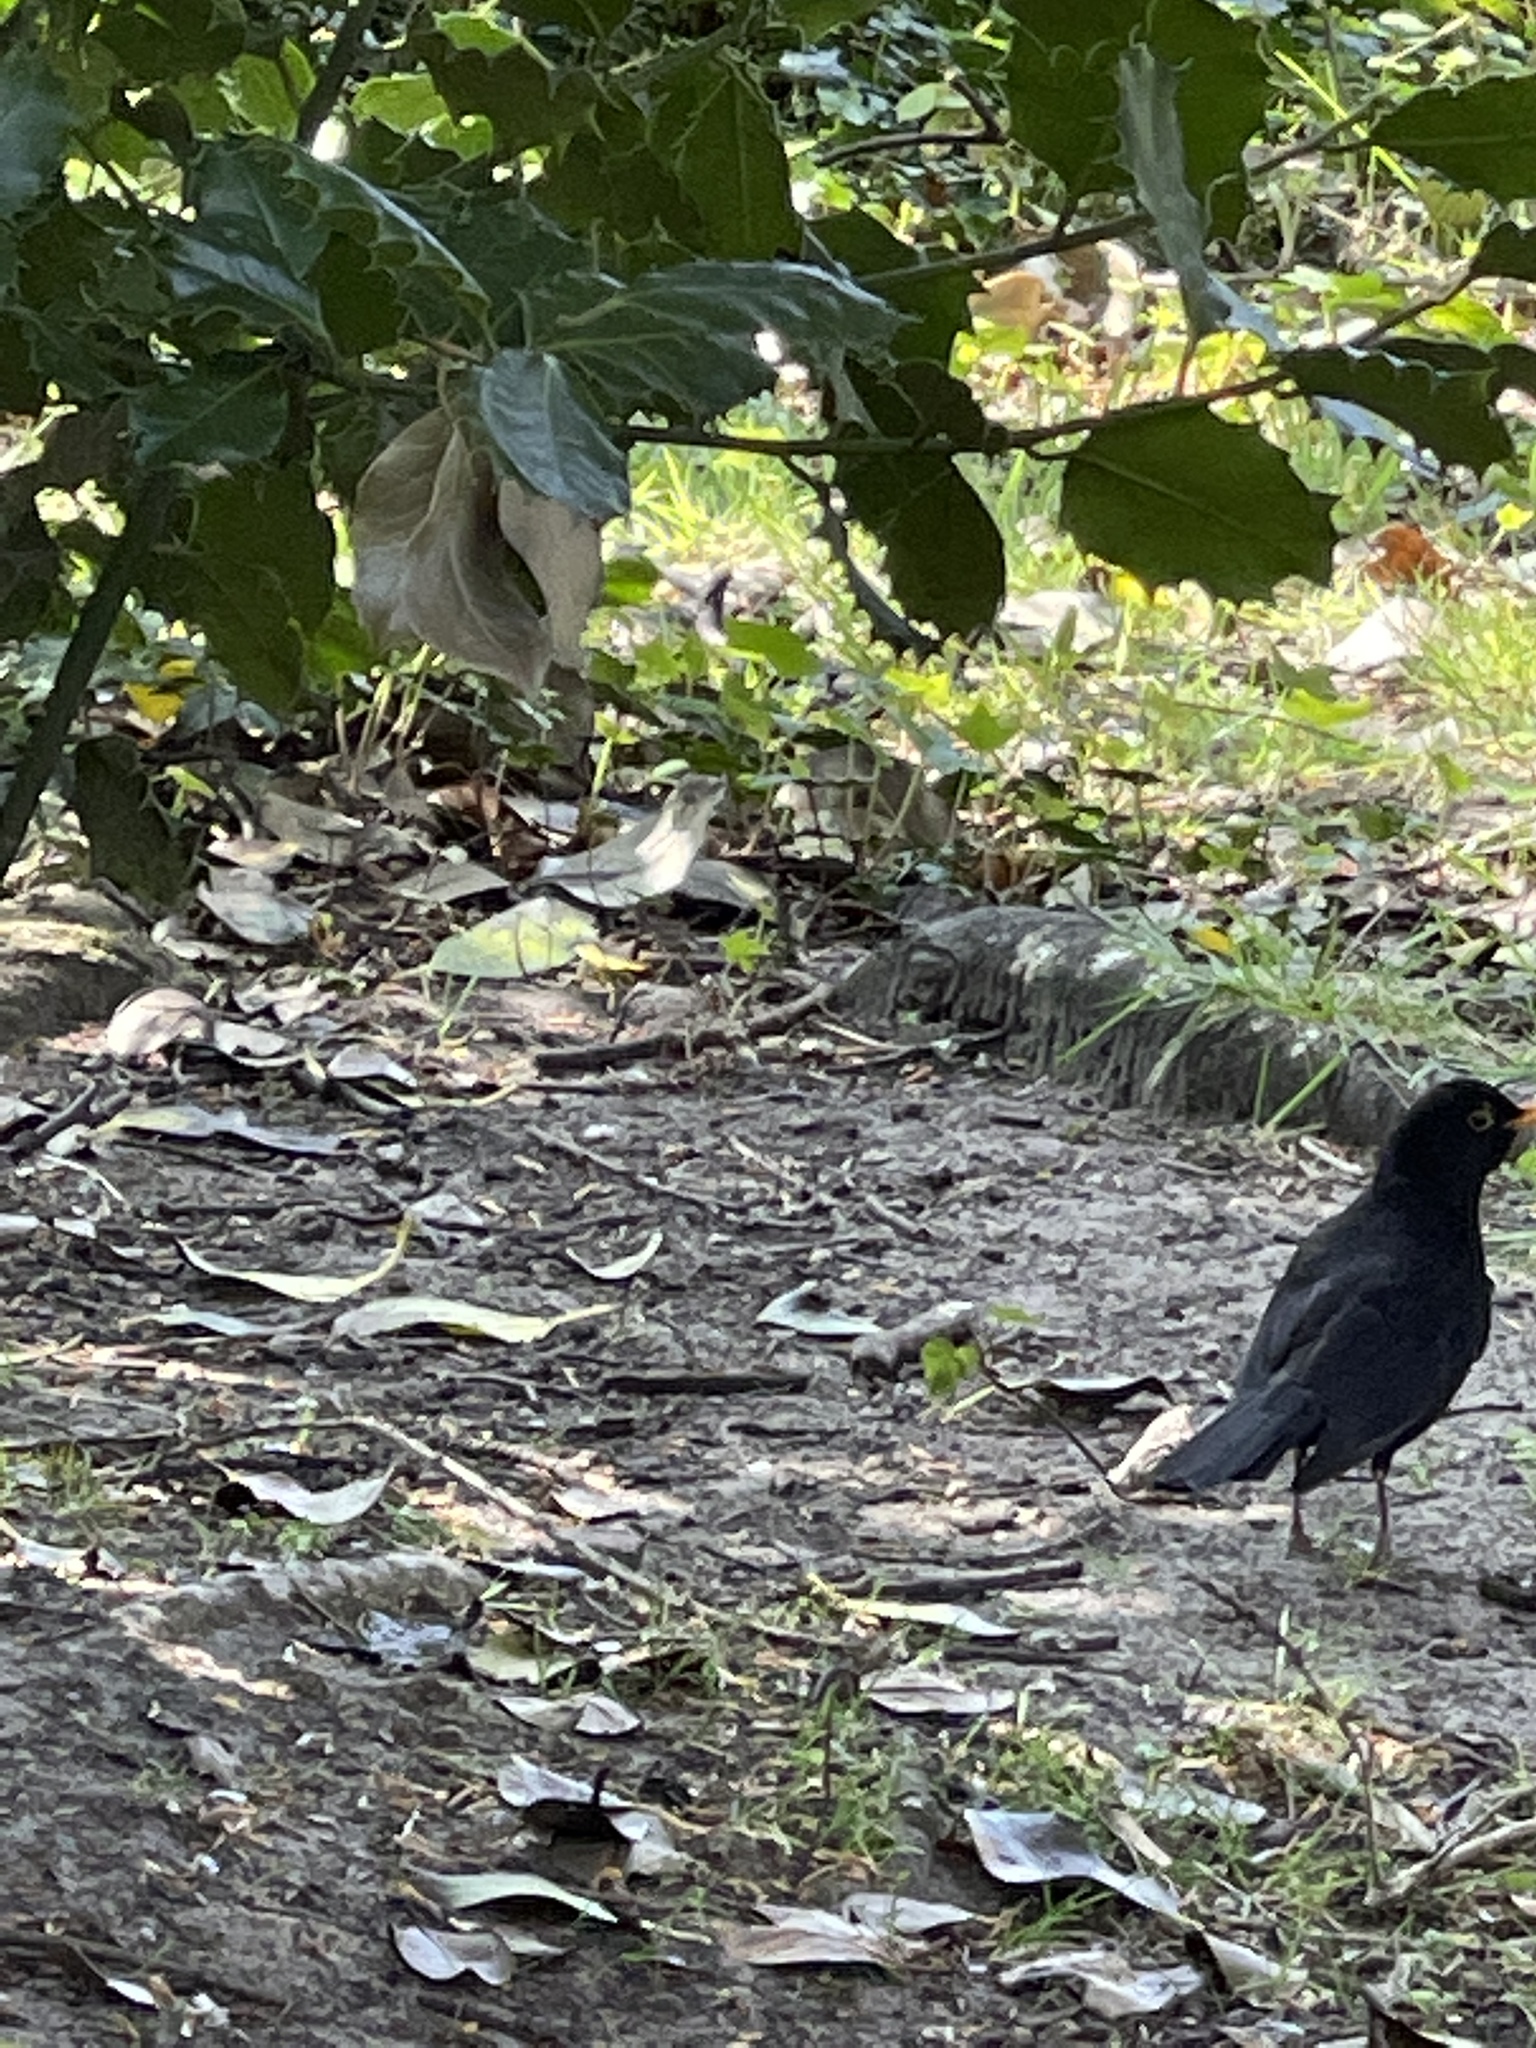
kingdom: Animalia
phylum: Chordata
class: Aves
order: Passeriformes
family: Turdidae
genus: Turdus
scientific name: Turdus merula
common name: Common blackbird
